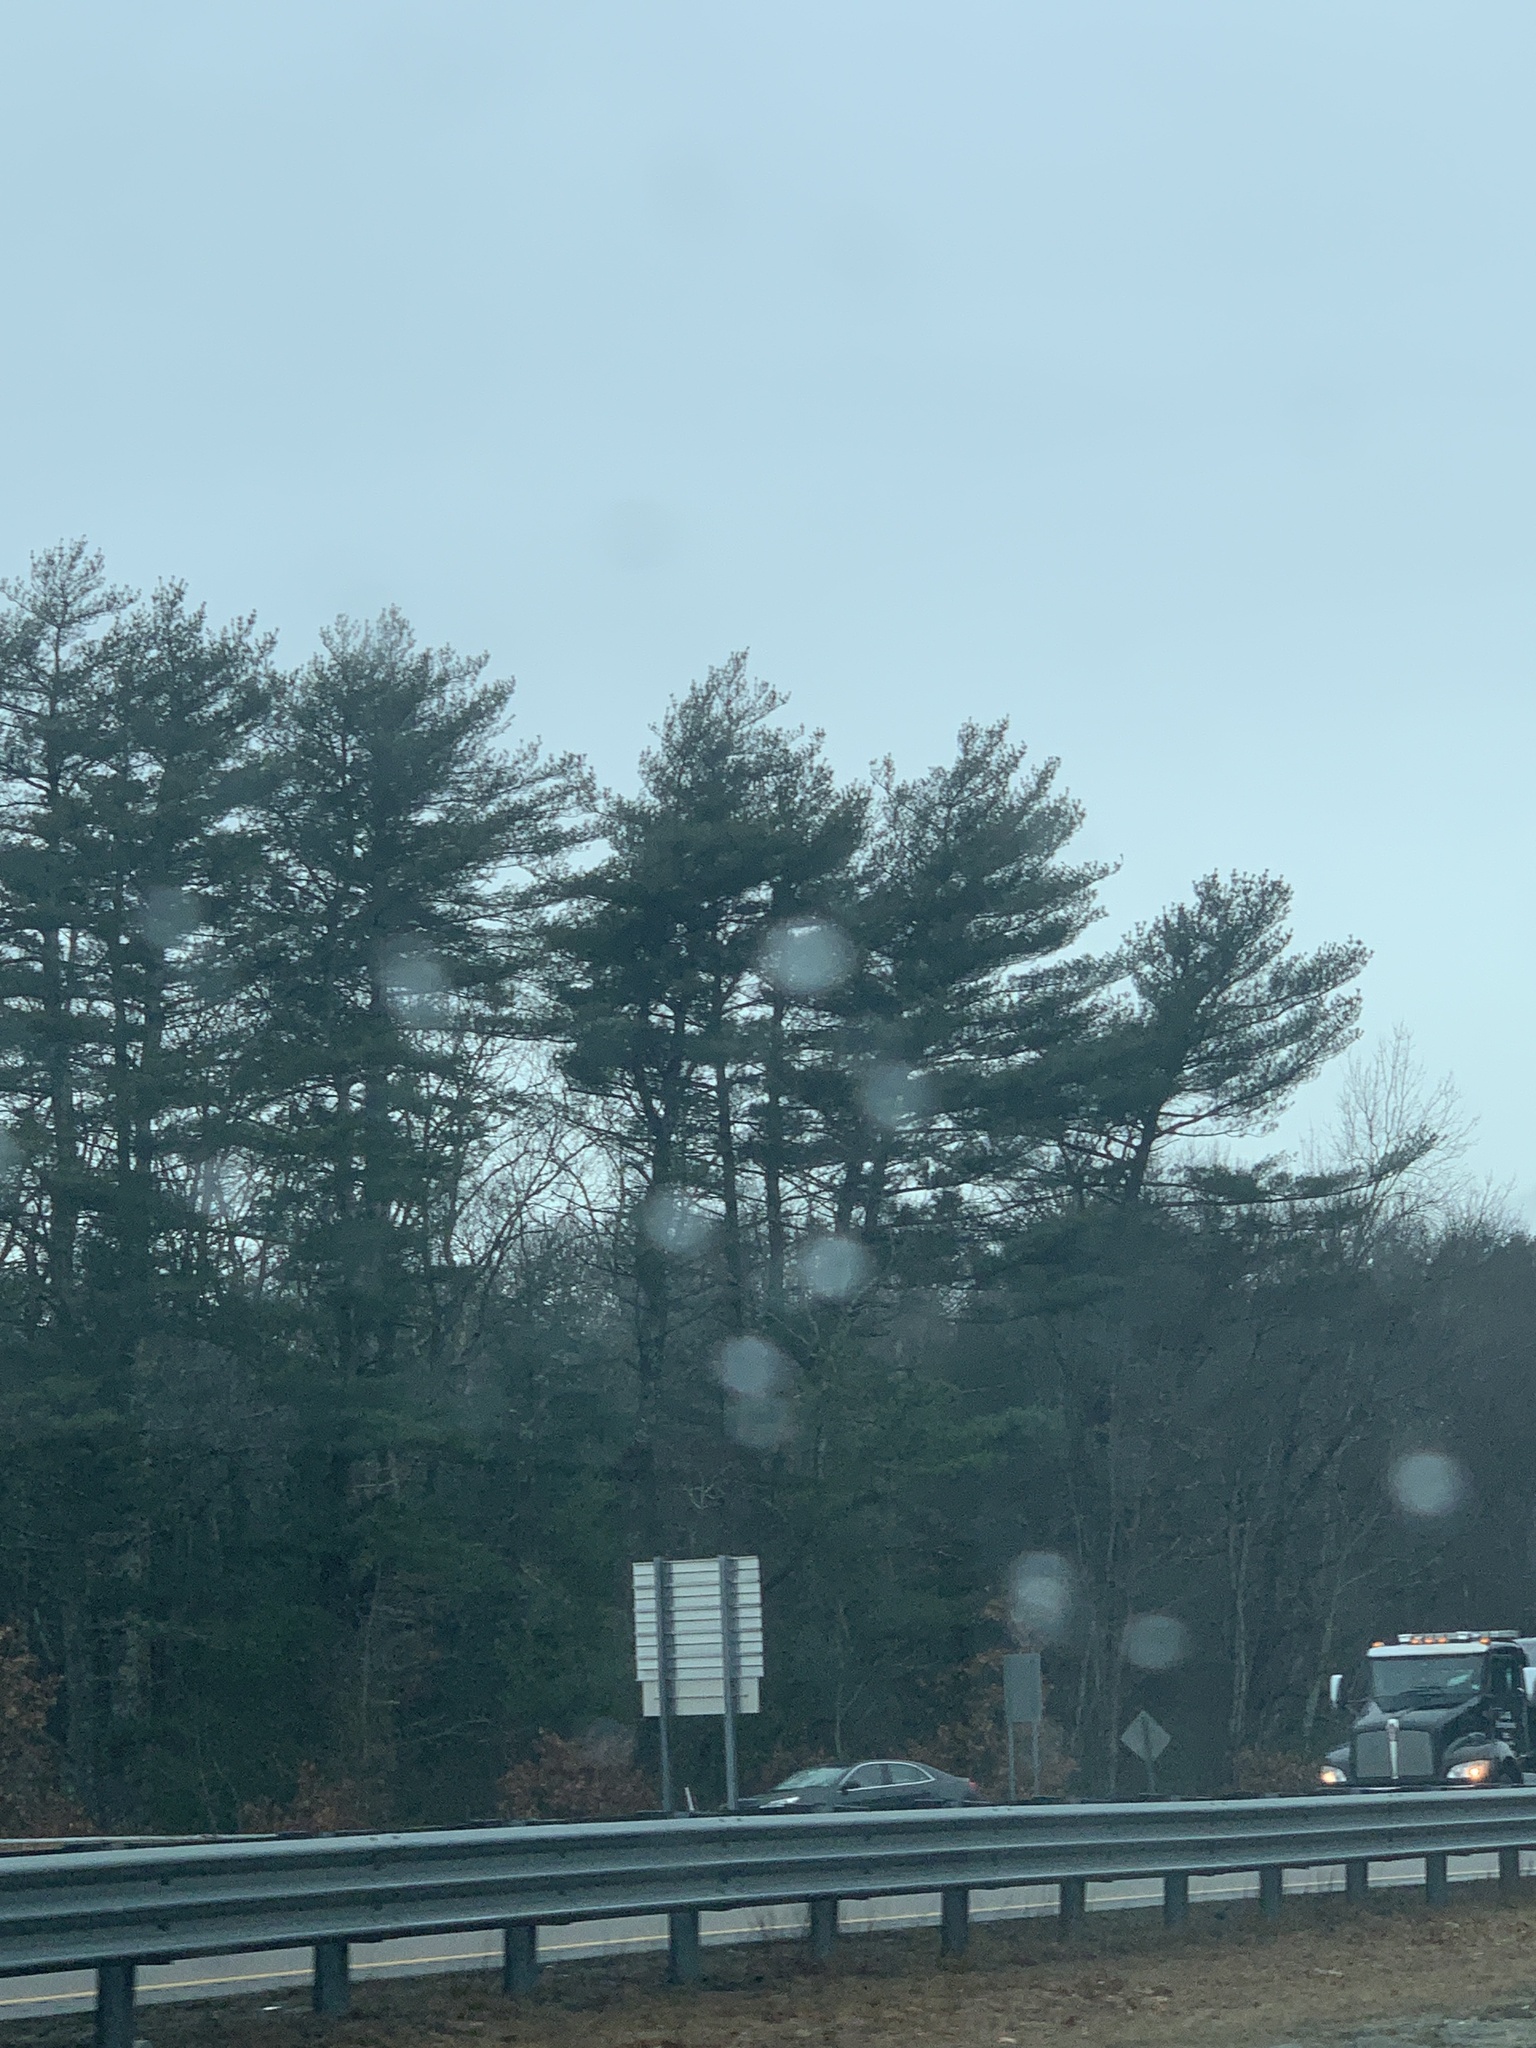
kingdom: Plantae
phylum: Tracheophyta
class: Pinopsida
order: Pinales
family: Pinaceae
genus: Pinus
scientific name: Pinus strobus
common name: Weymouth pine
